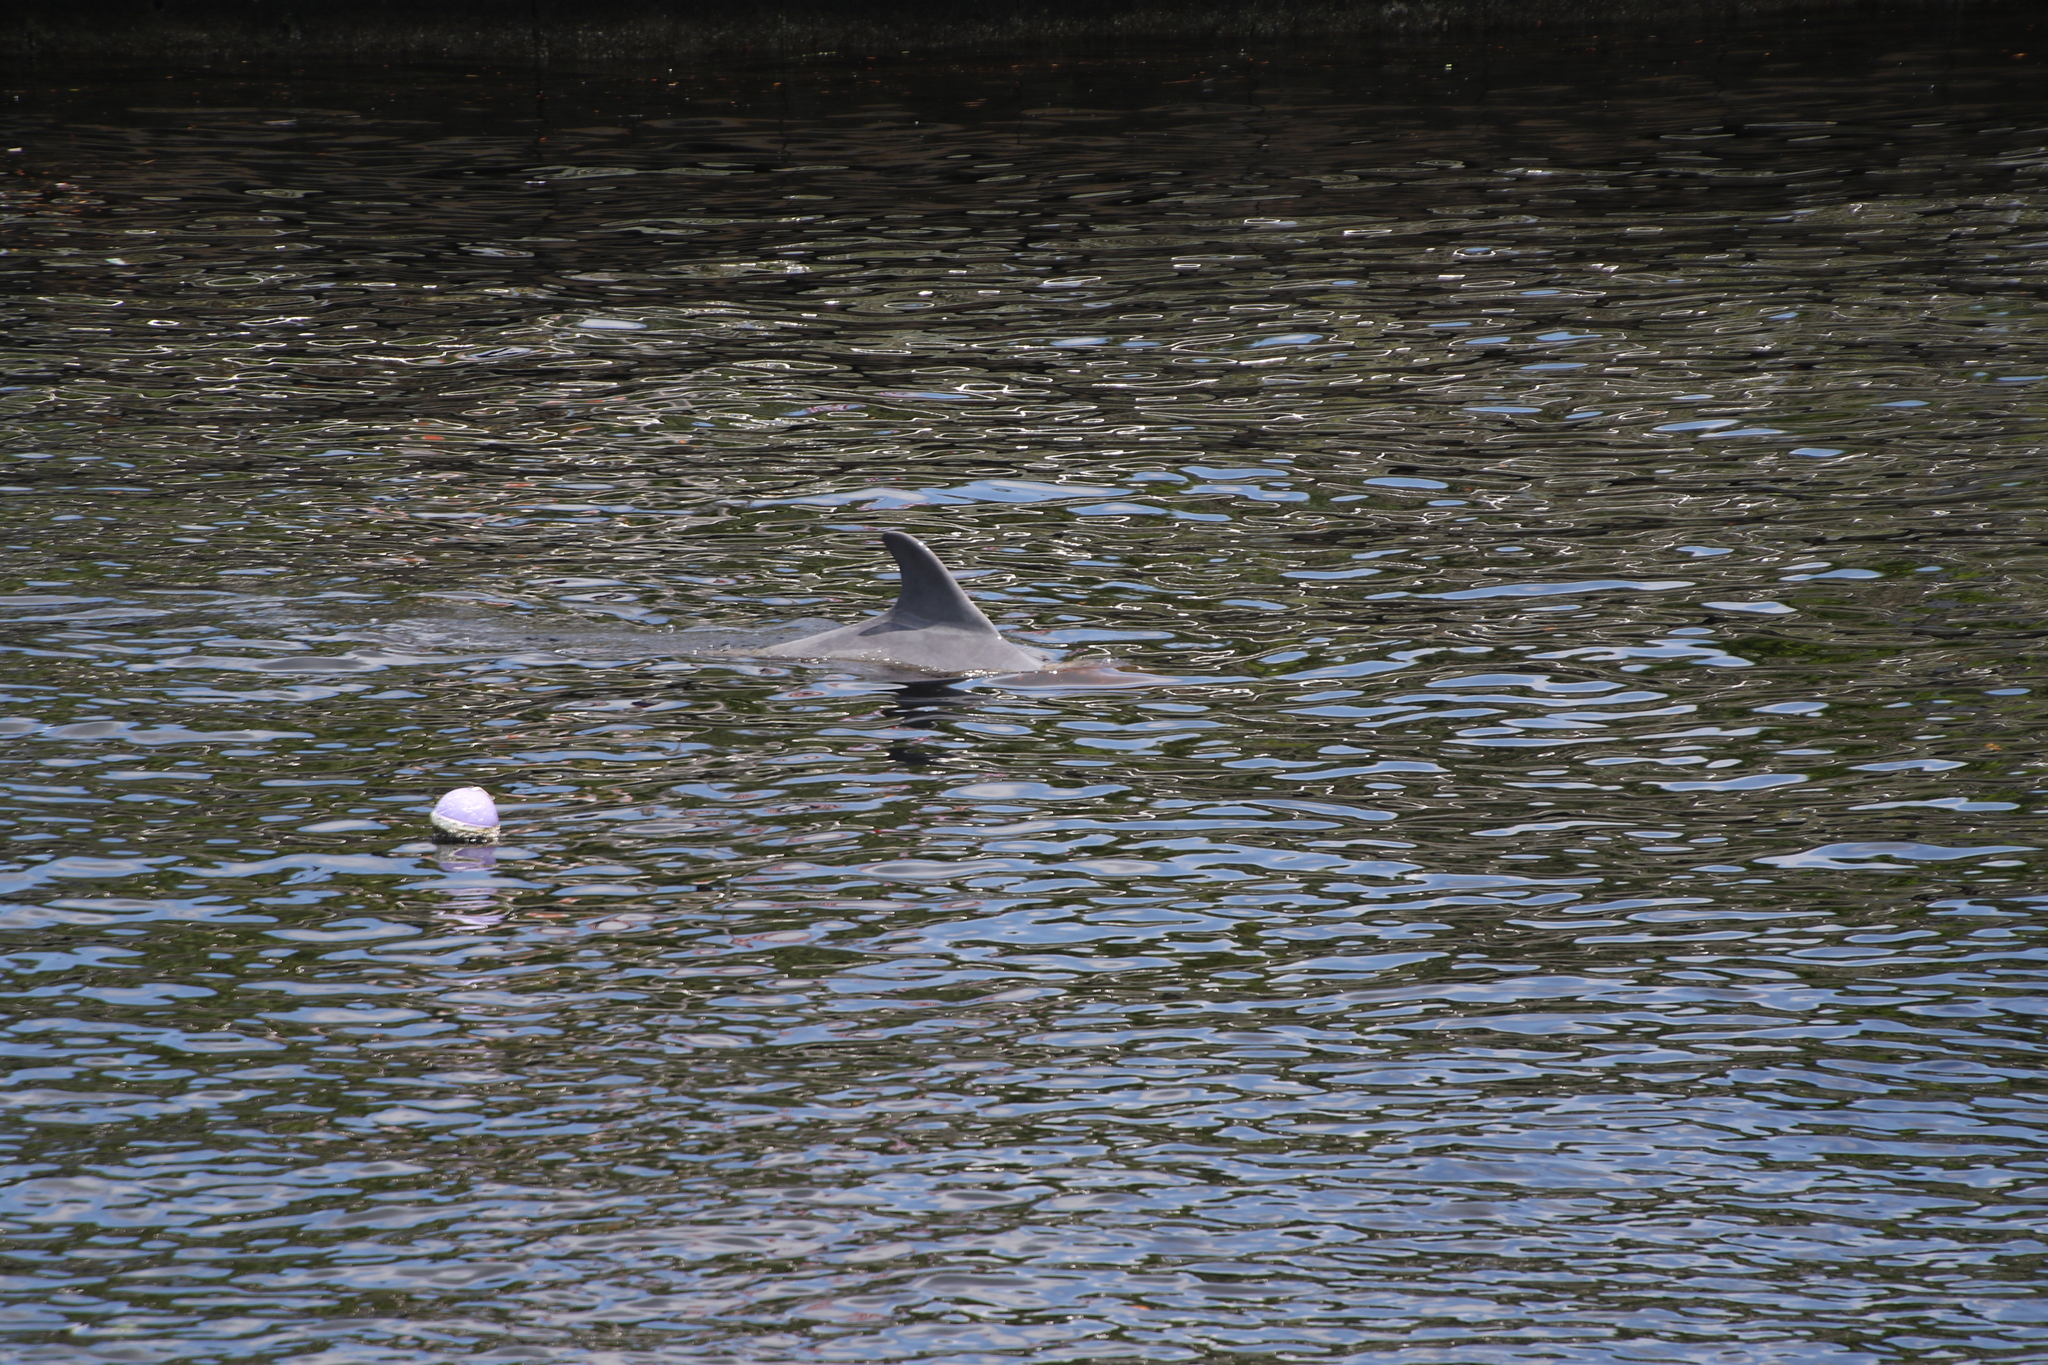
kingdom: Animalia
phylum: Chordata
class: Mammalia
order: Cetacea
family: Delphinidae
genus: Tursiops
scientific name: Tursiops truncatus
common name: Bottlenose dolphin
